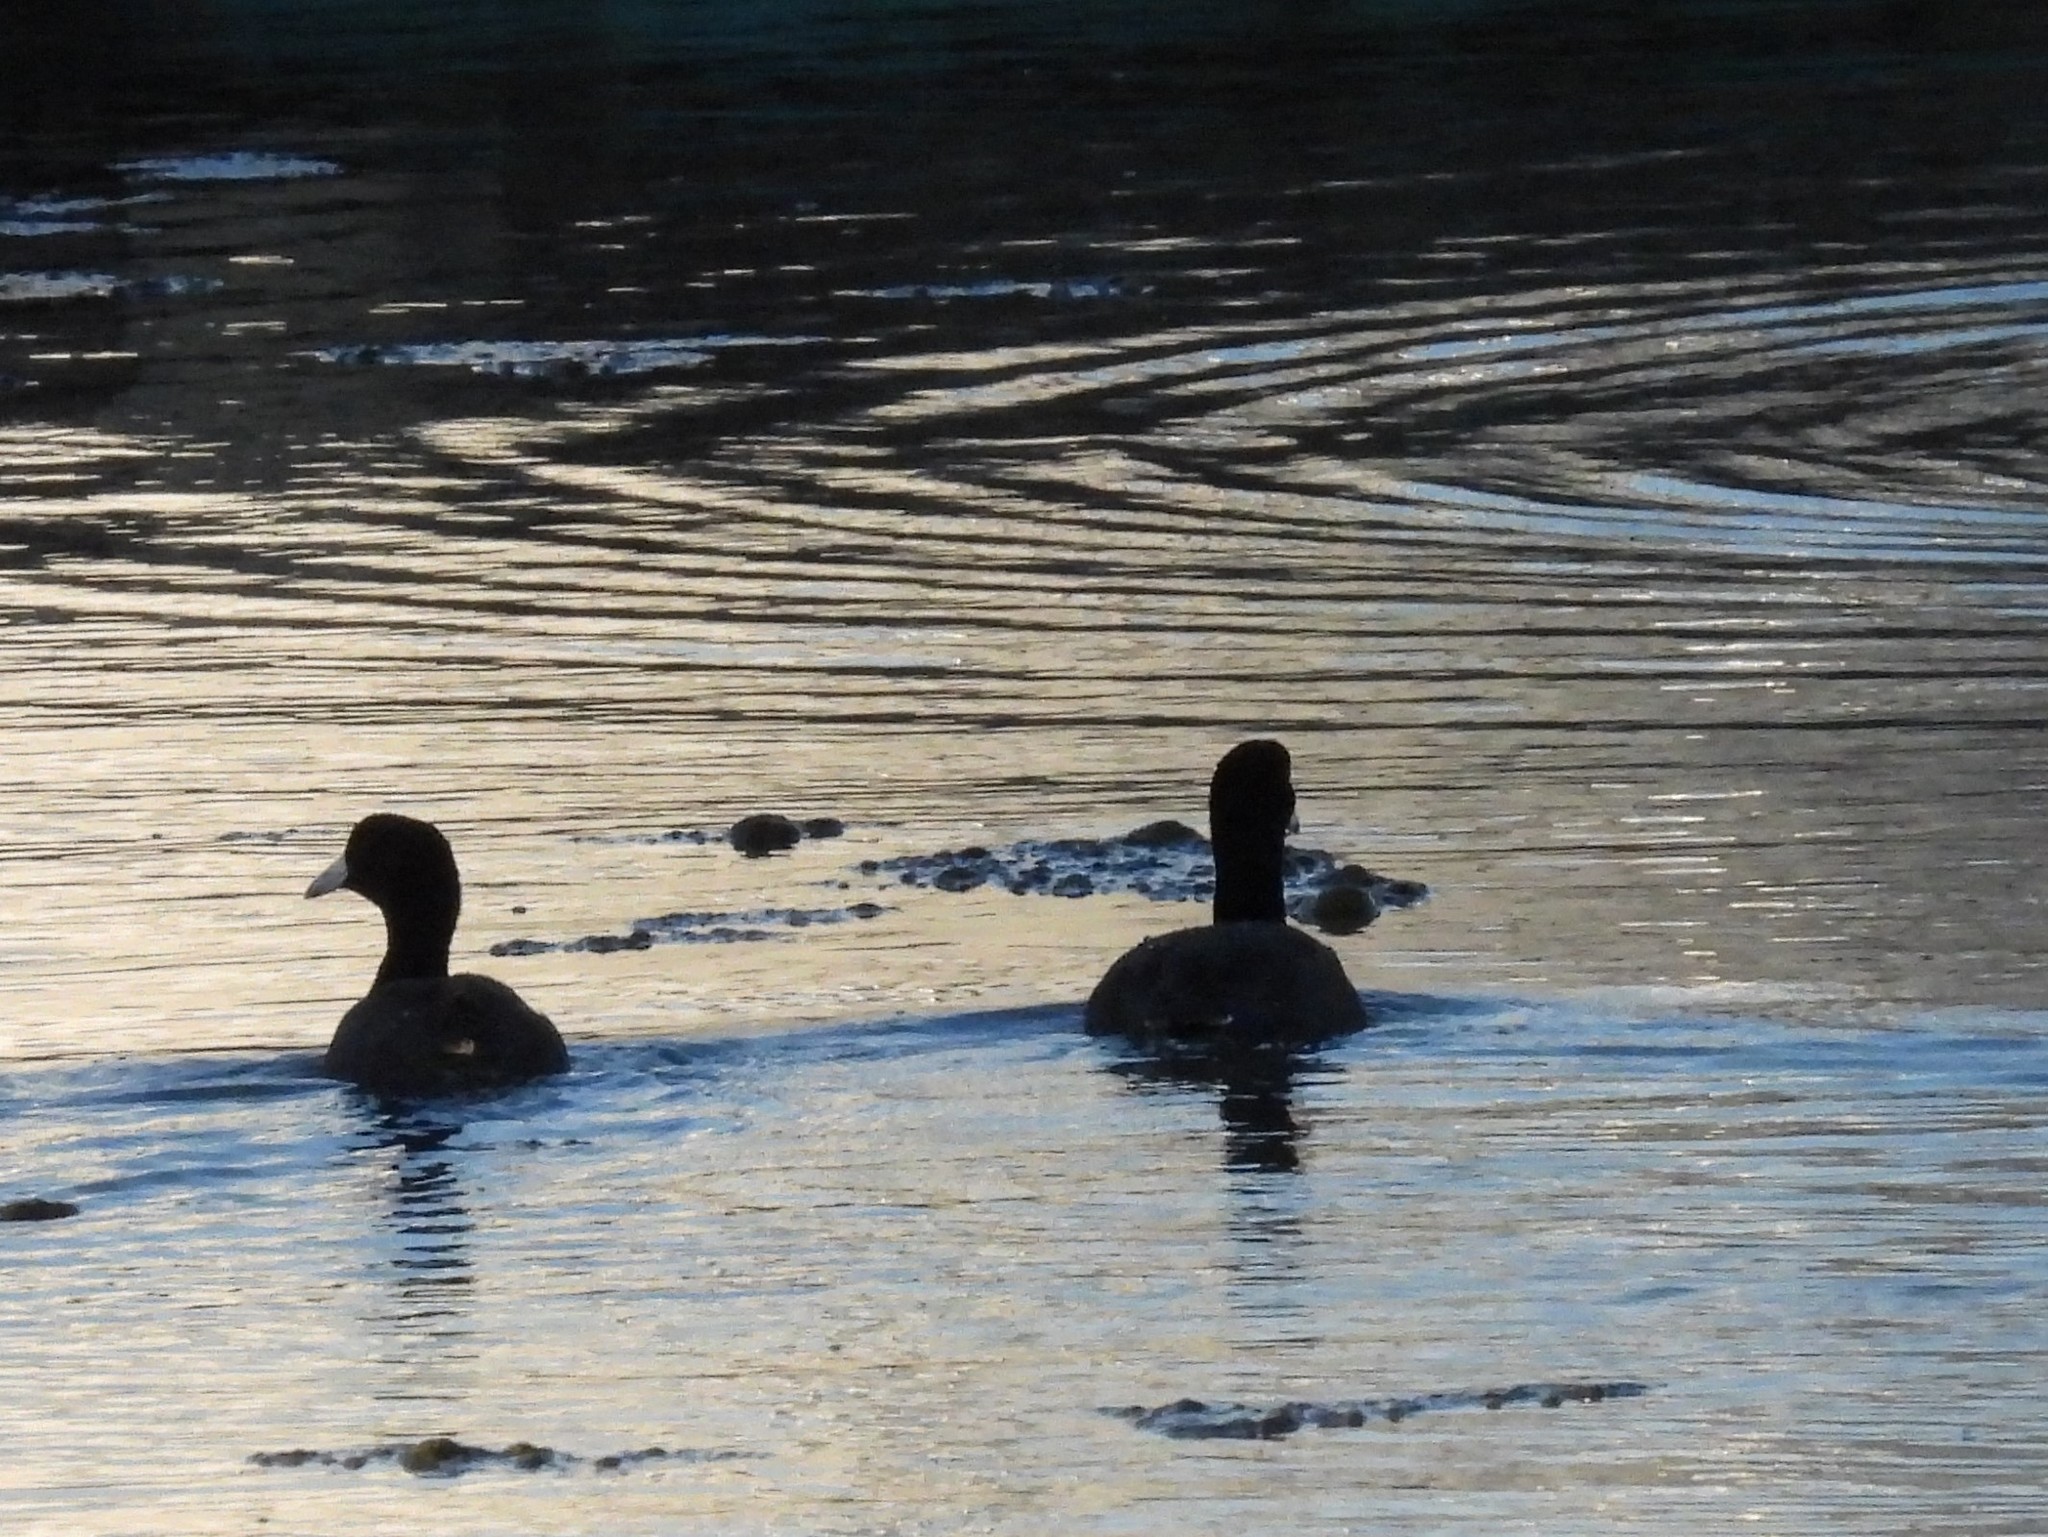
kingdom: Animalia
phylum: Chordata
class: Aves
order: Gruiformes
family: Rallidae
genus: Fulica
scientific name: Fulica americana
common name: American coot
